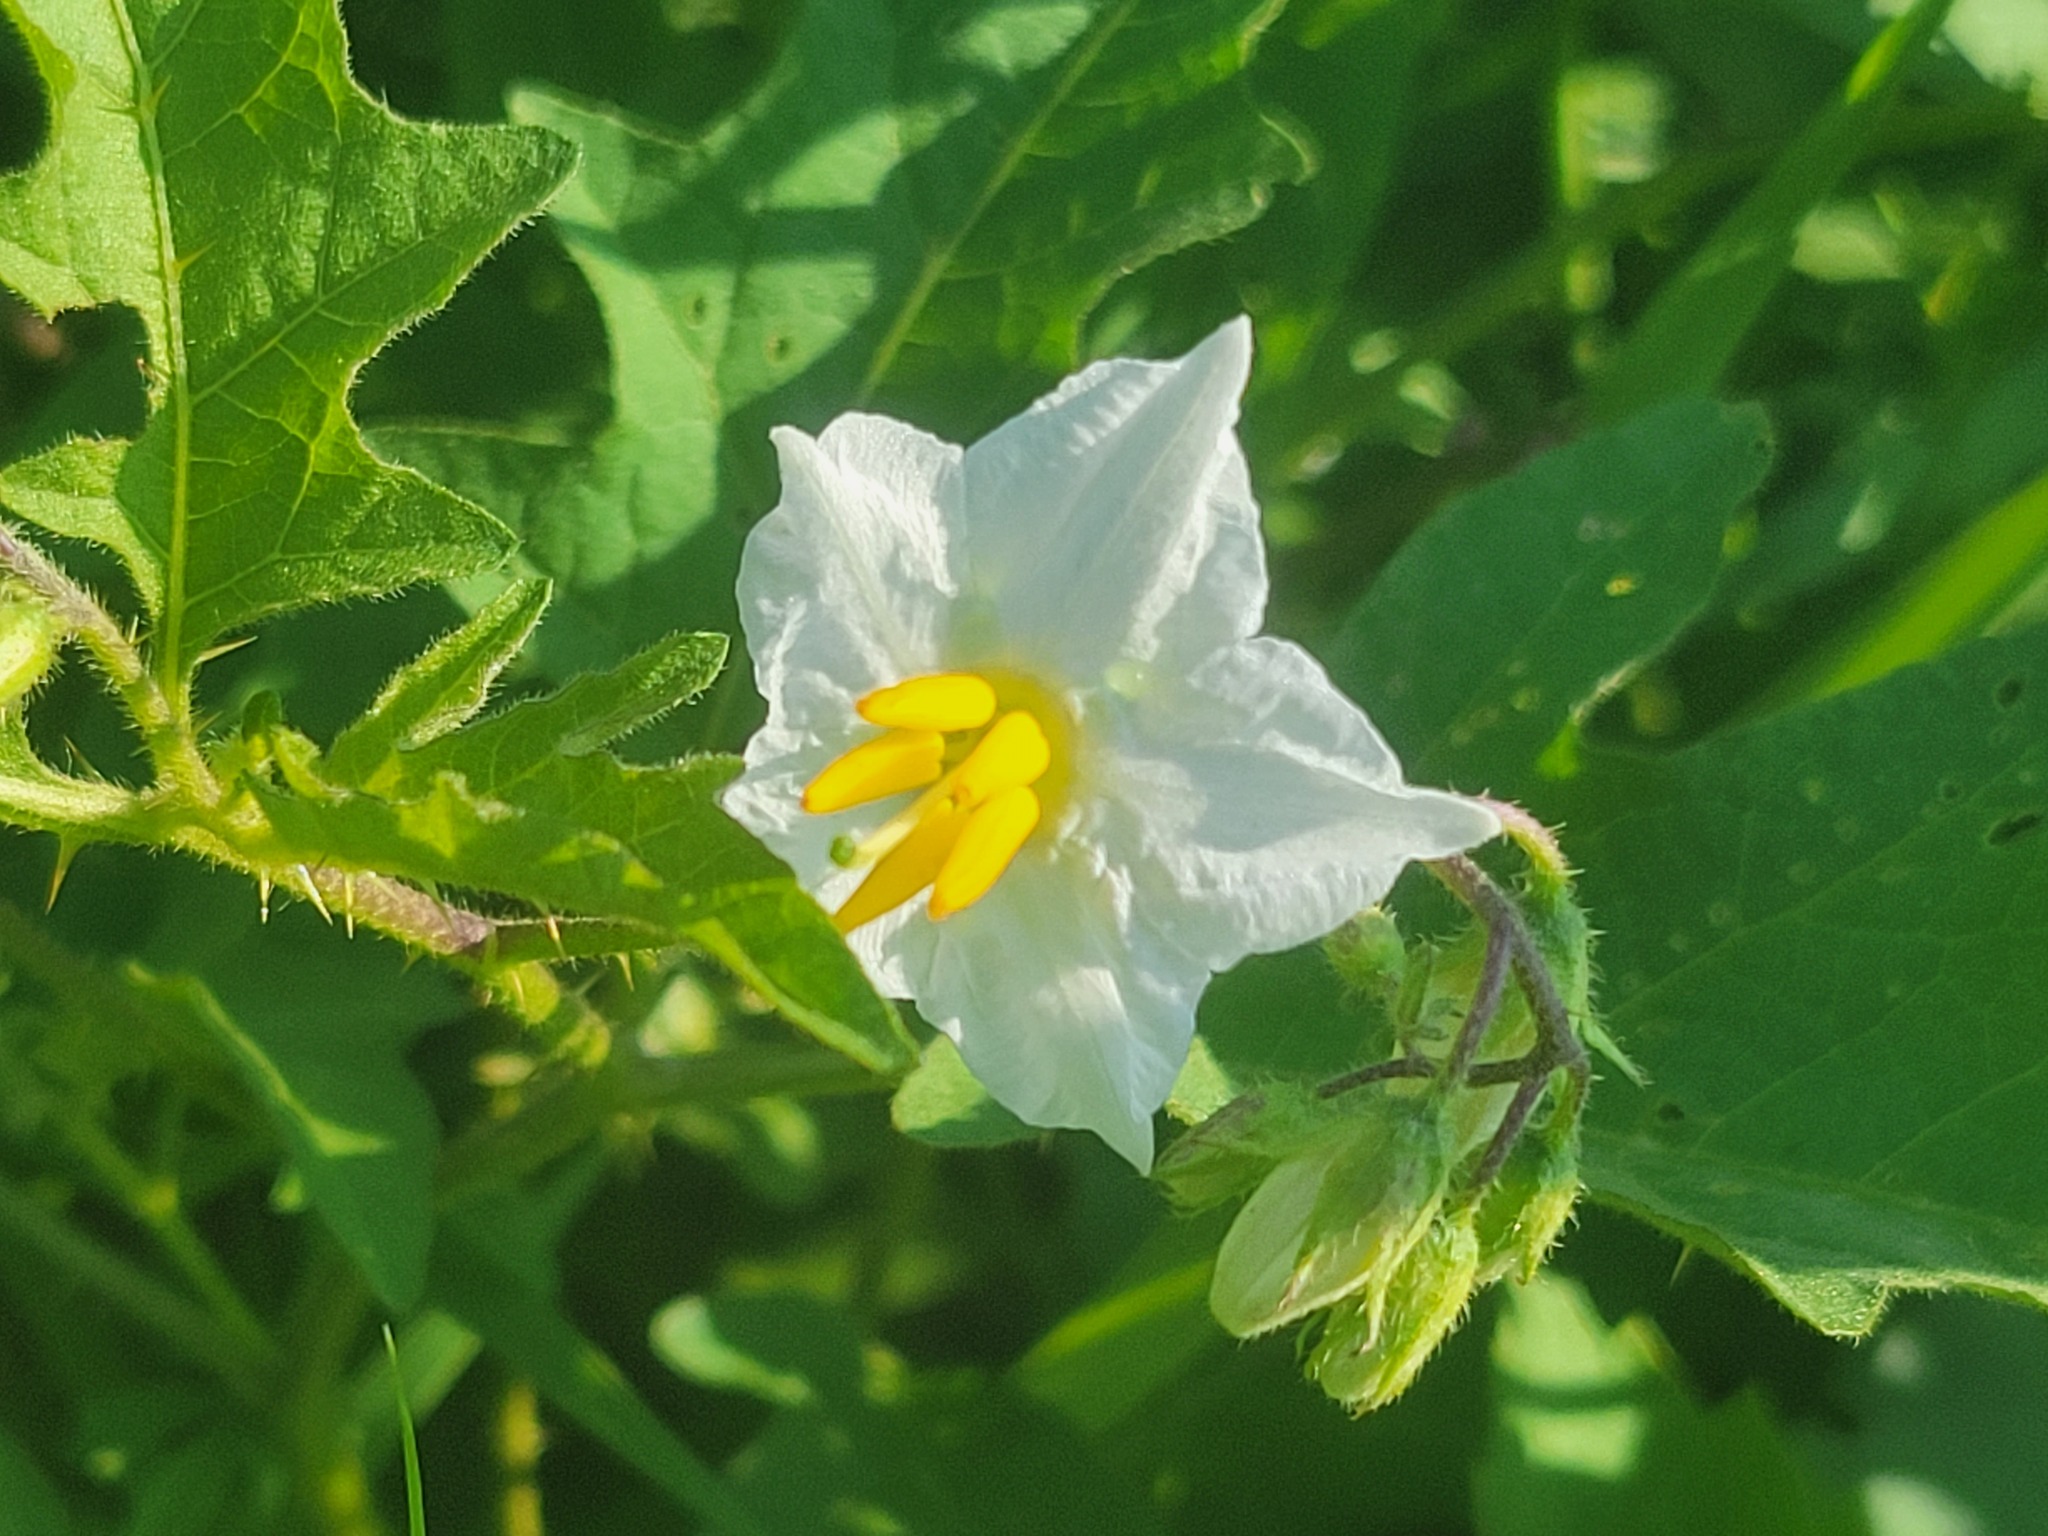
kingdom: Plantae
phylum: Tracheophyta
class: Magnoliopsida
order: Solanales
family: Solanaceae
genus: Solanum
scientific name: Solanum carolinense
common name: Horse-nettle
